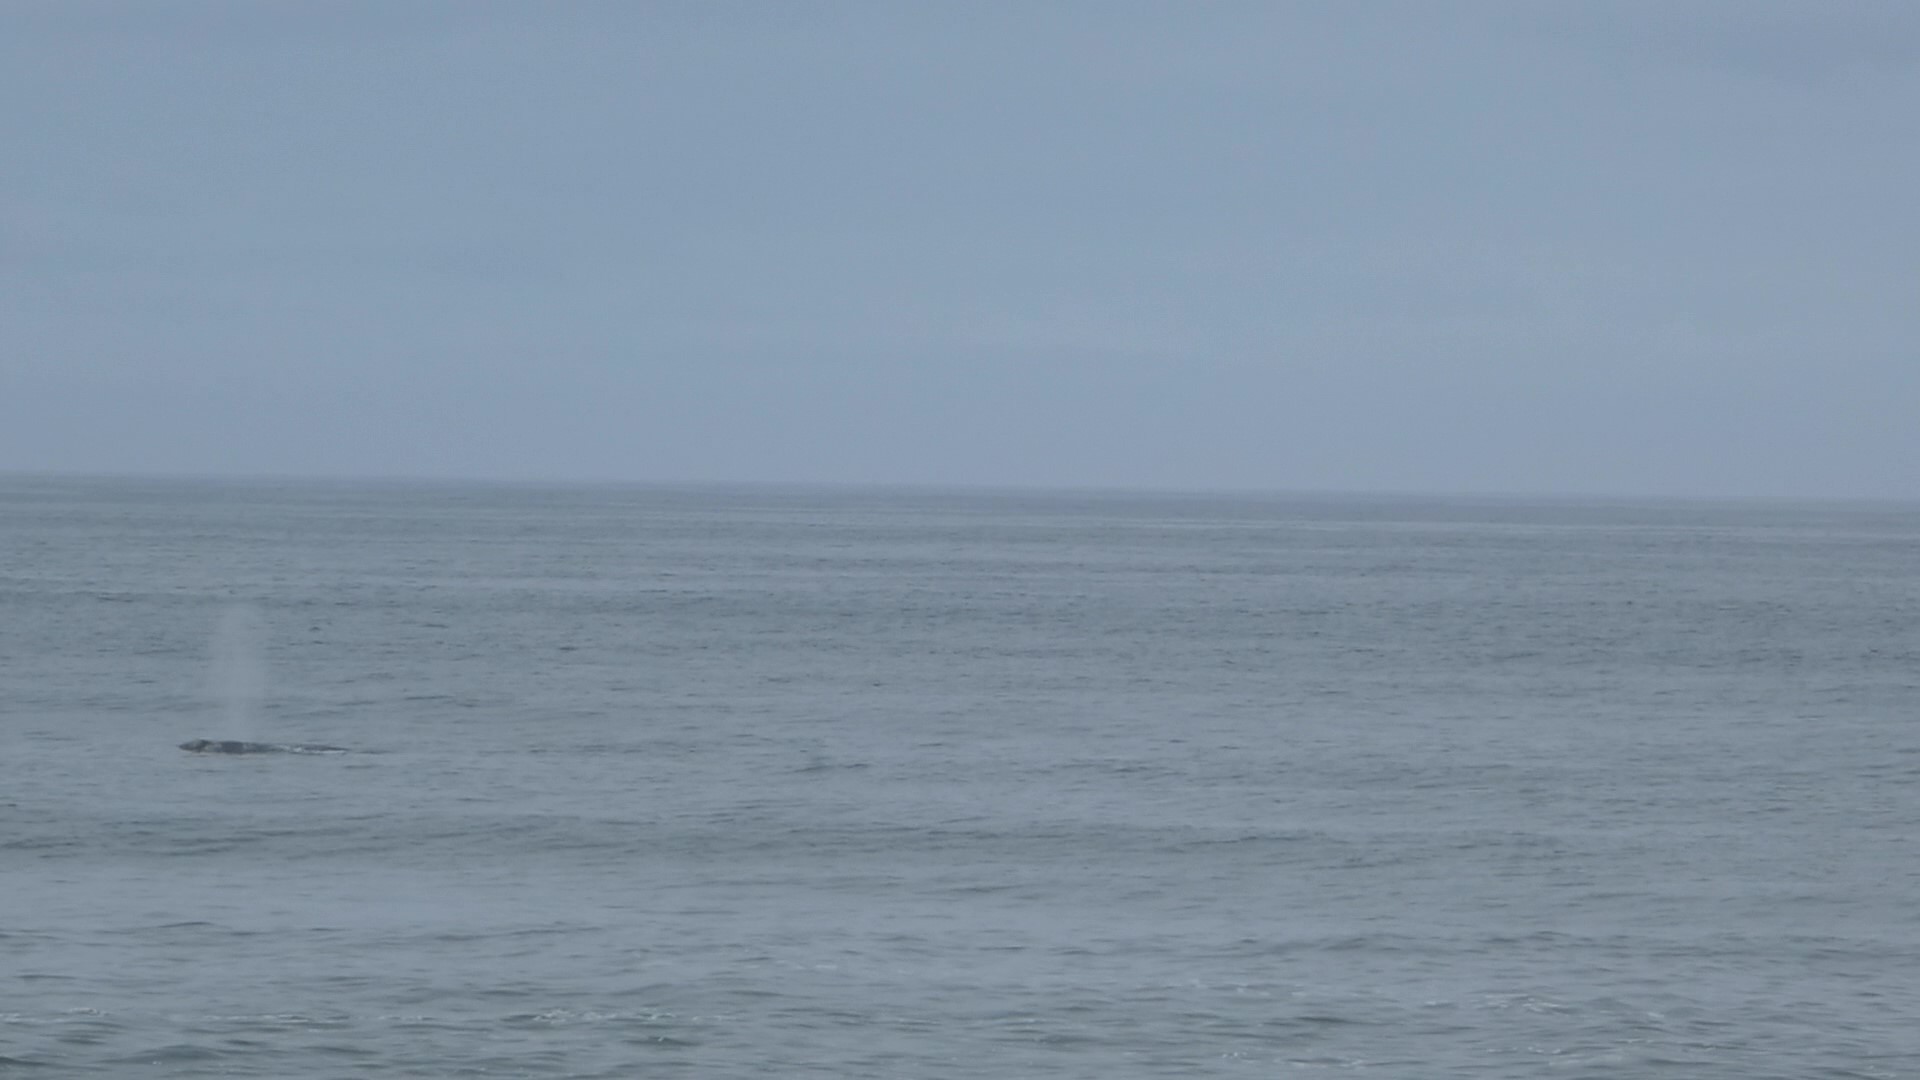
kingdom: Animalia
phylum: Chordata
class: Mammalia
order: Cetacea
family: Eschrichtiidae
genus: Eschrichtius
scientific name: Eschrichtius robustus
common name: Gray whale
